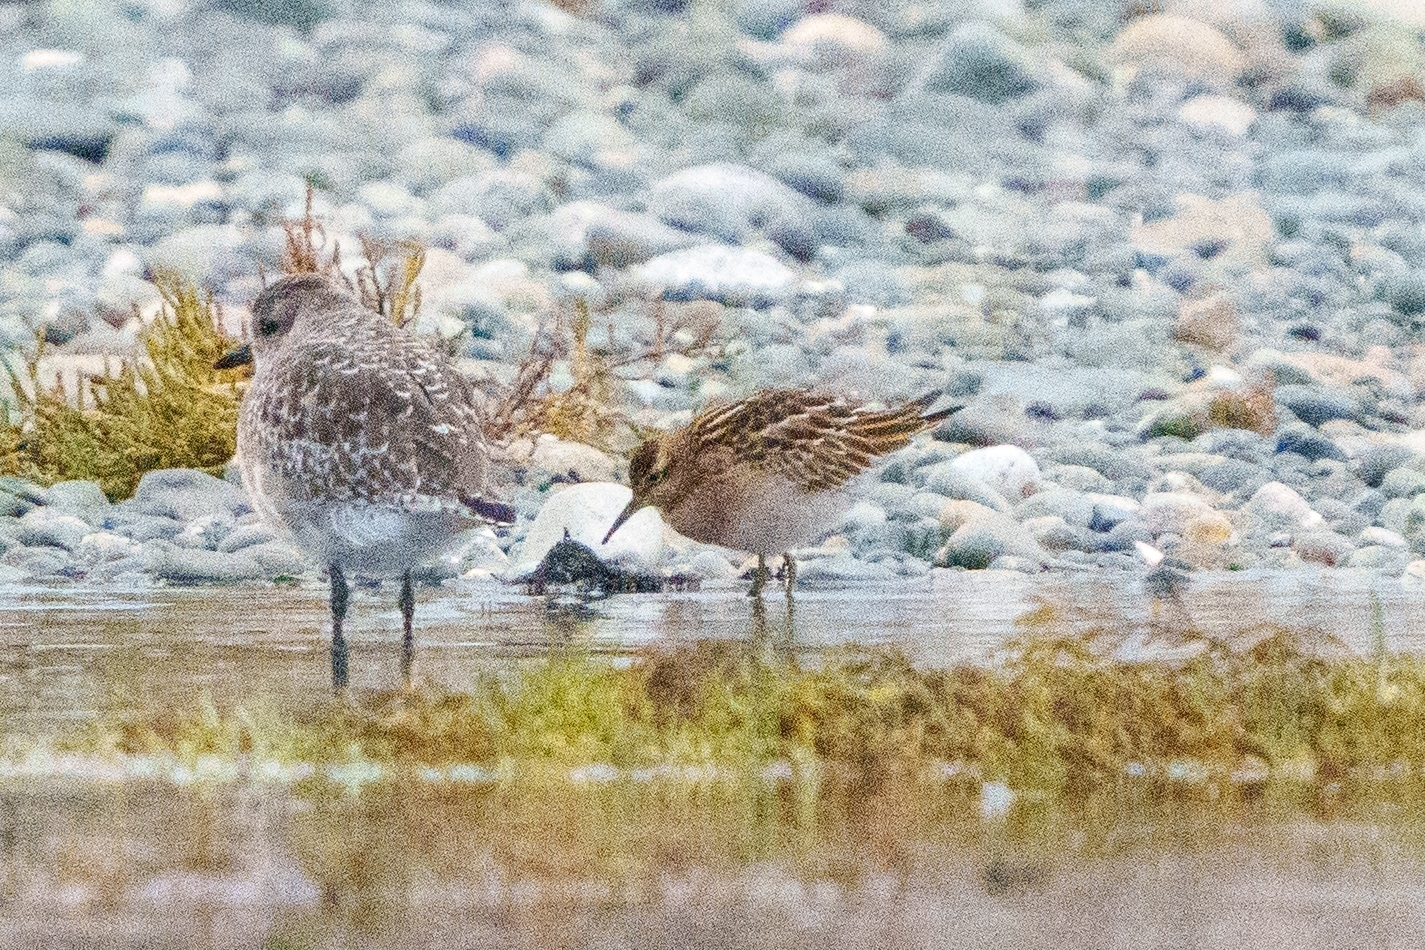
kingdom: Animalia
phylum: Chordata
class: Aves
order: Charadriiformes
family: Charadriidae
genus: Pluvialis
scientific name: Pluvialis squatarola
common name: Grey plover
